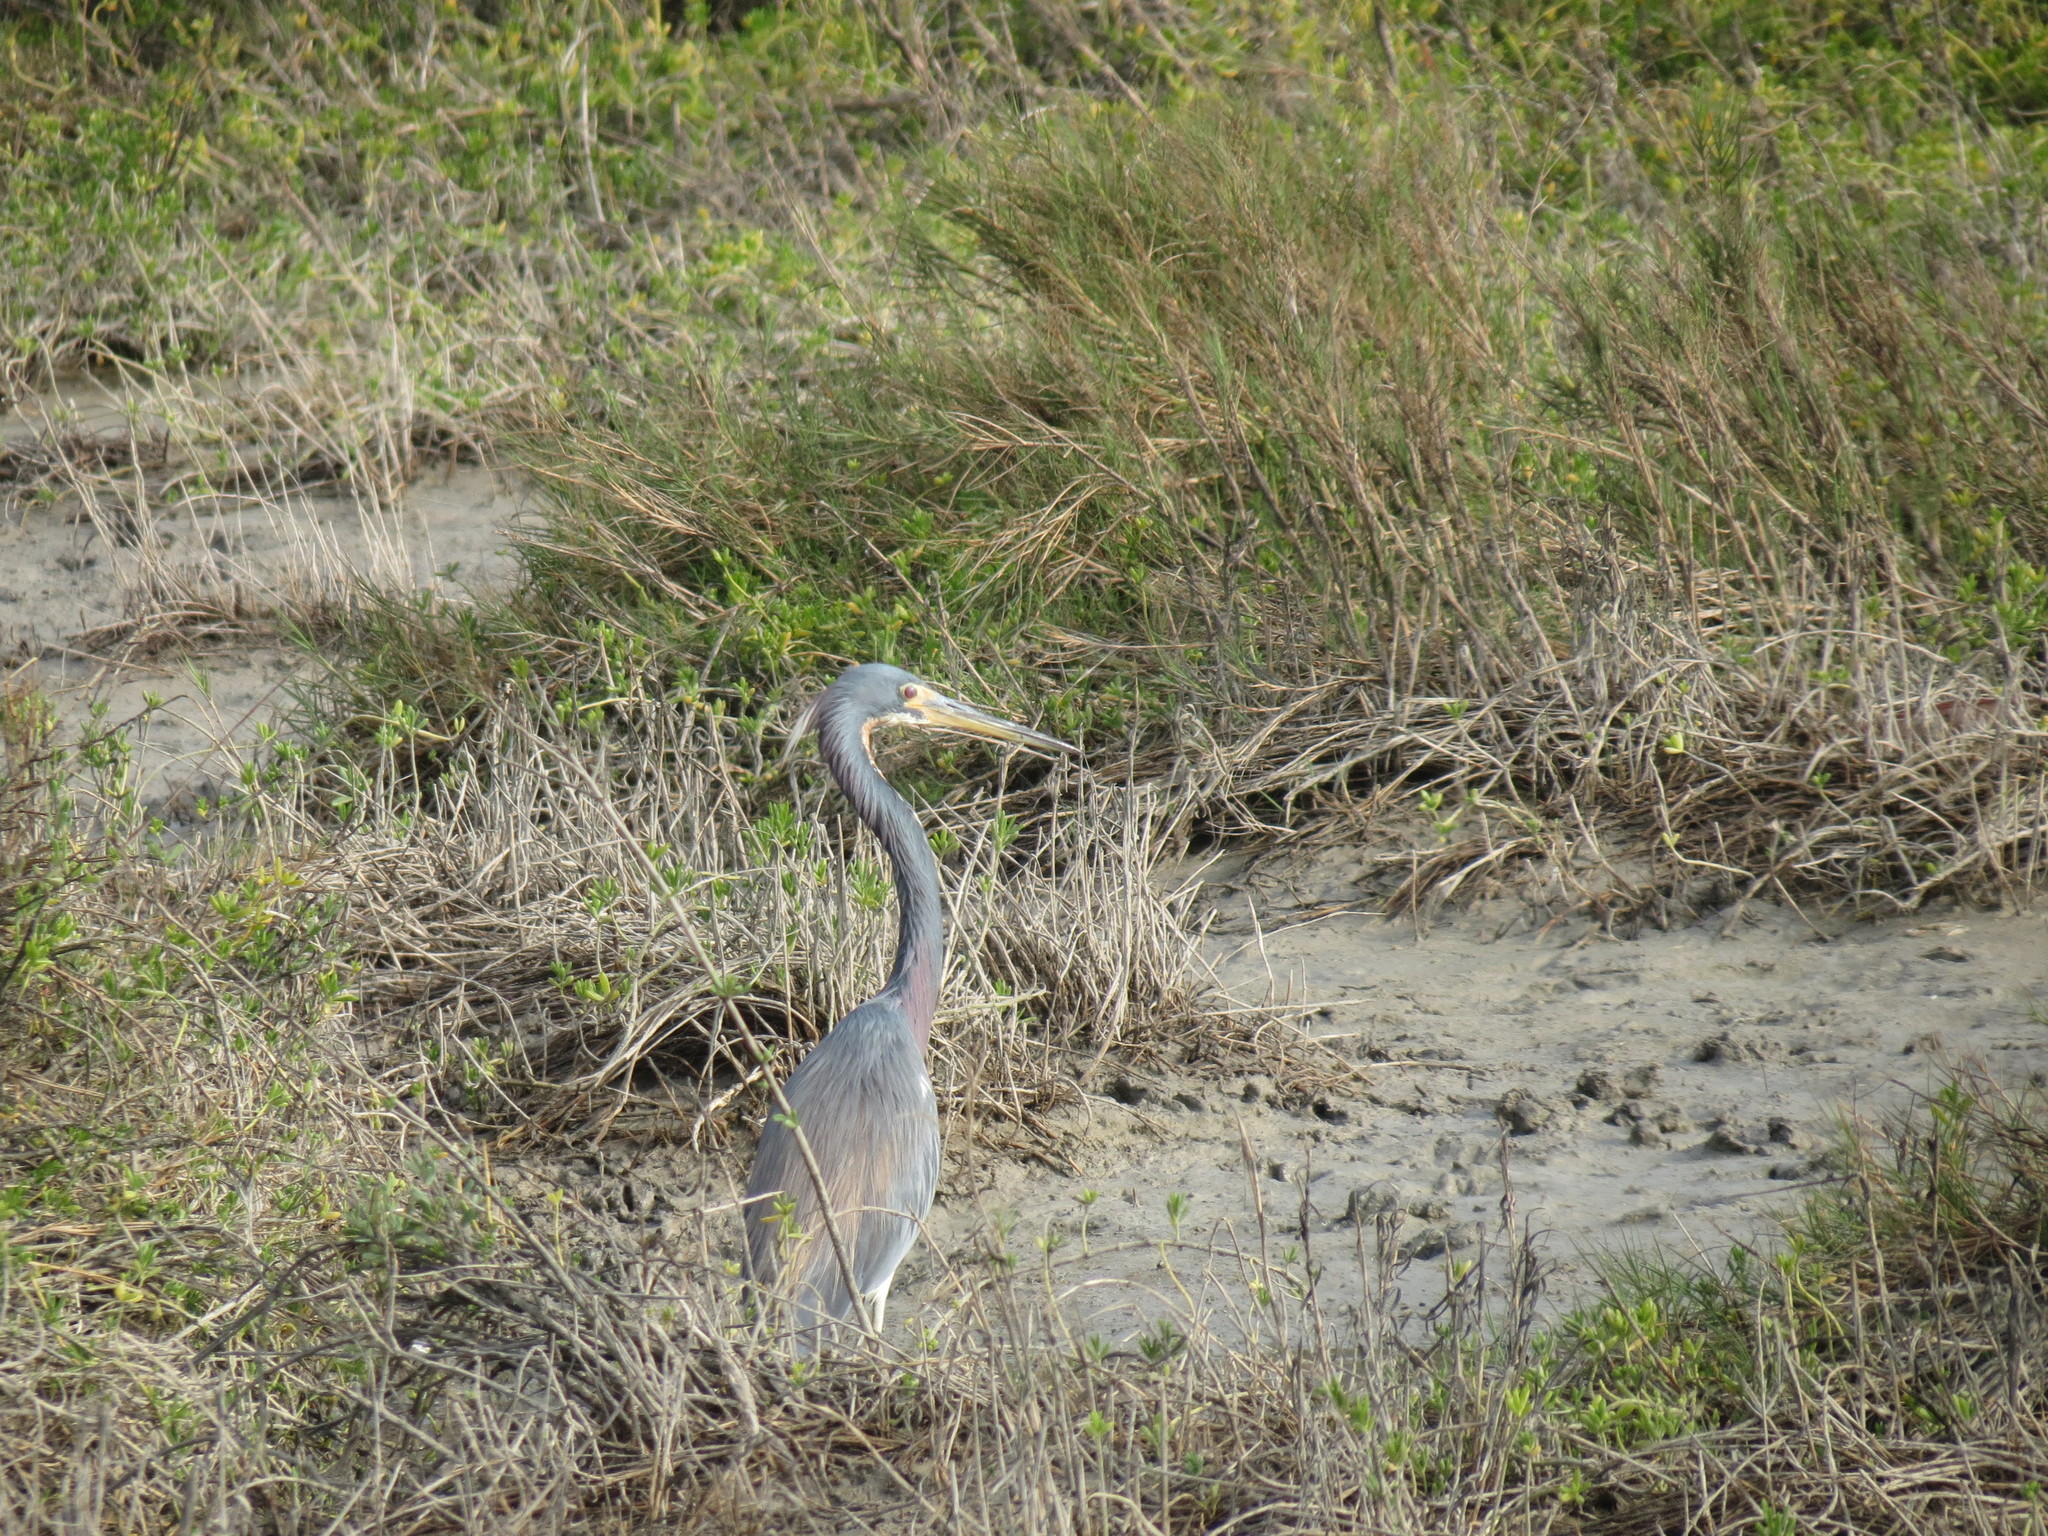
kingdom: Animalia
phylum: Chordata
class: Aves
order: Pelecaniformes
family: Ardeidae
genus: Egretta
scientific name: Egretta tricolor
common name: Tricolored heron
